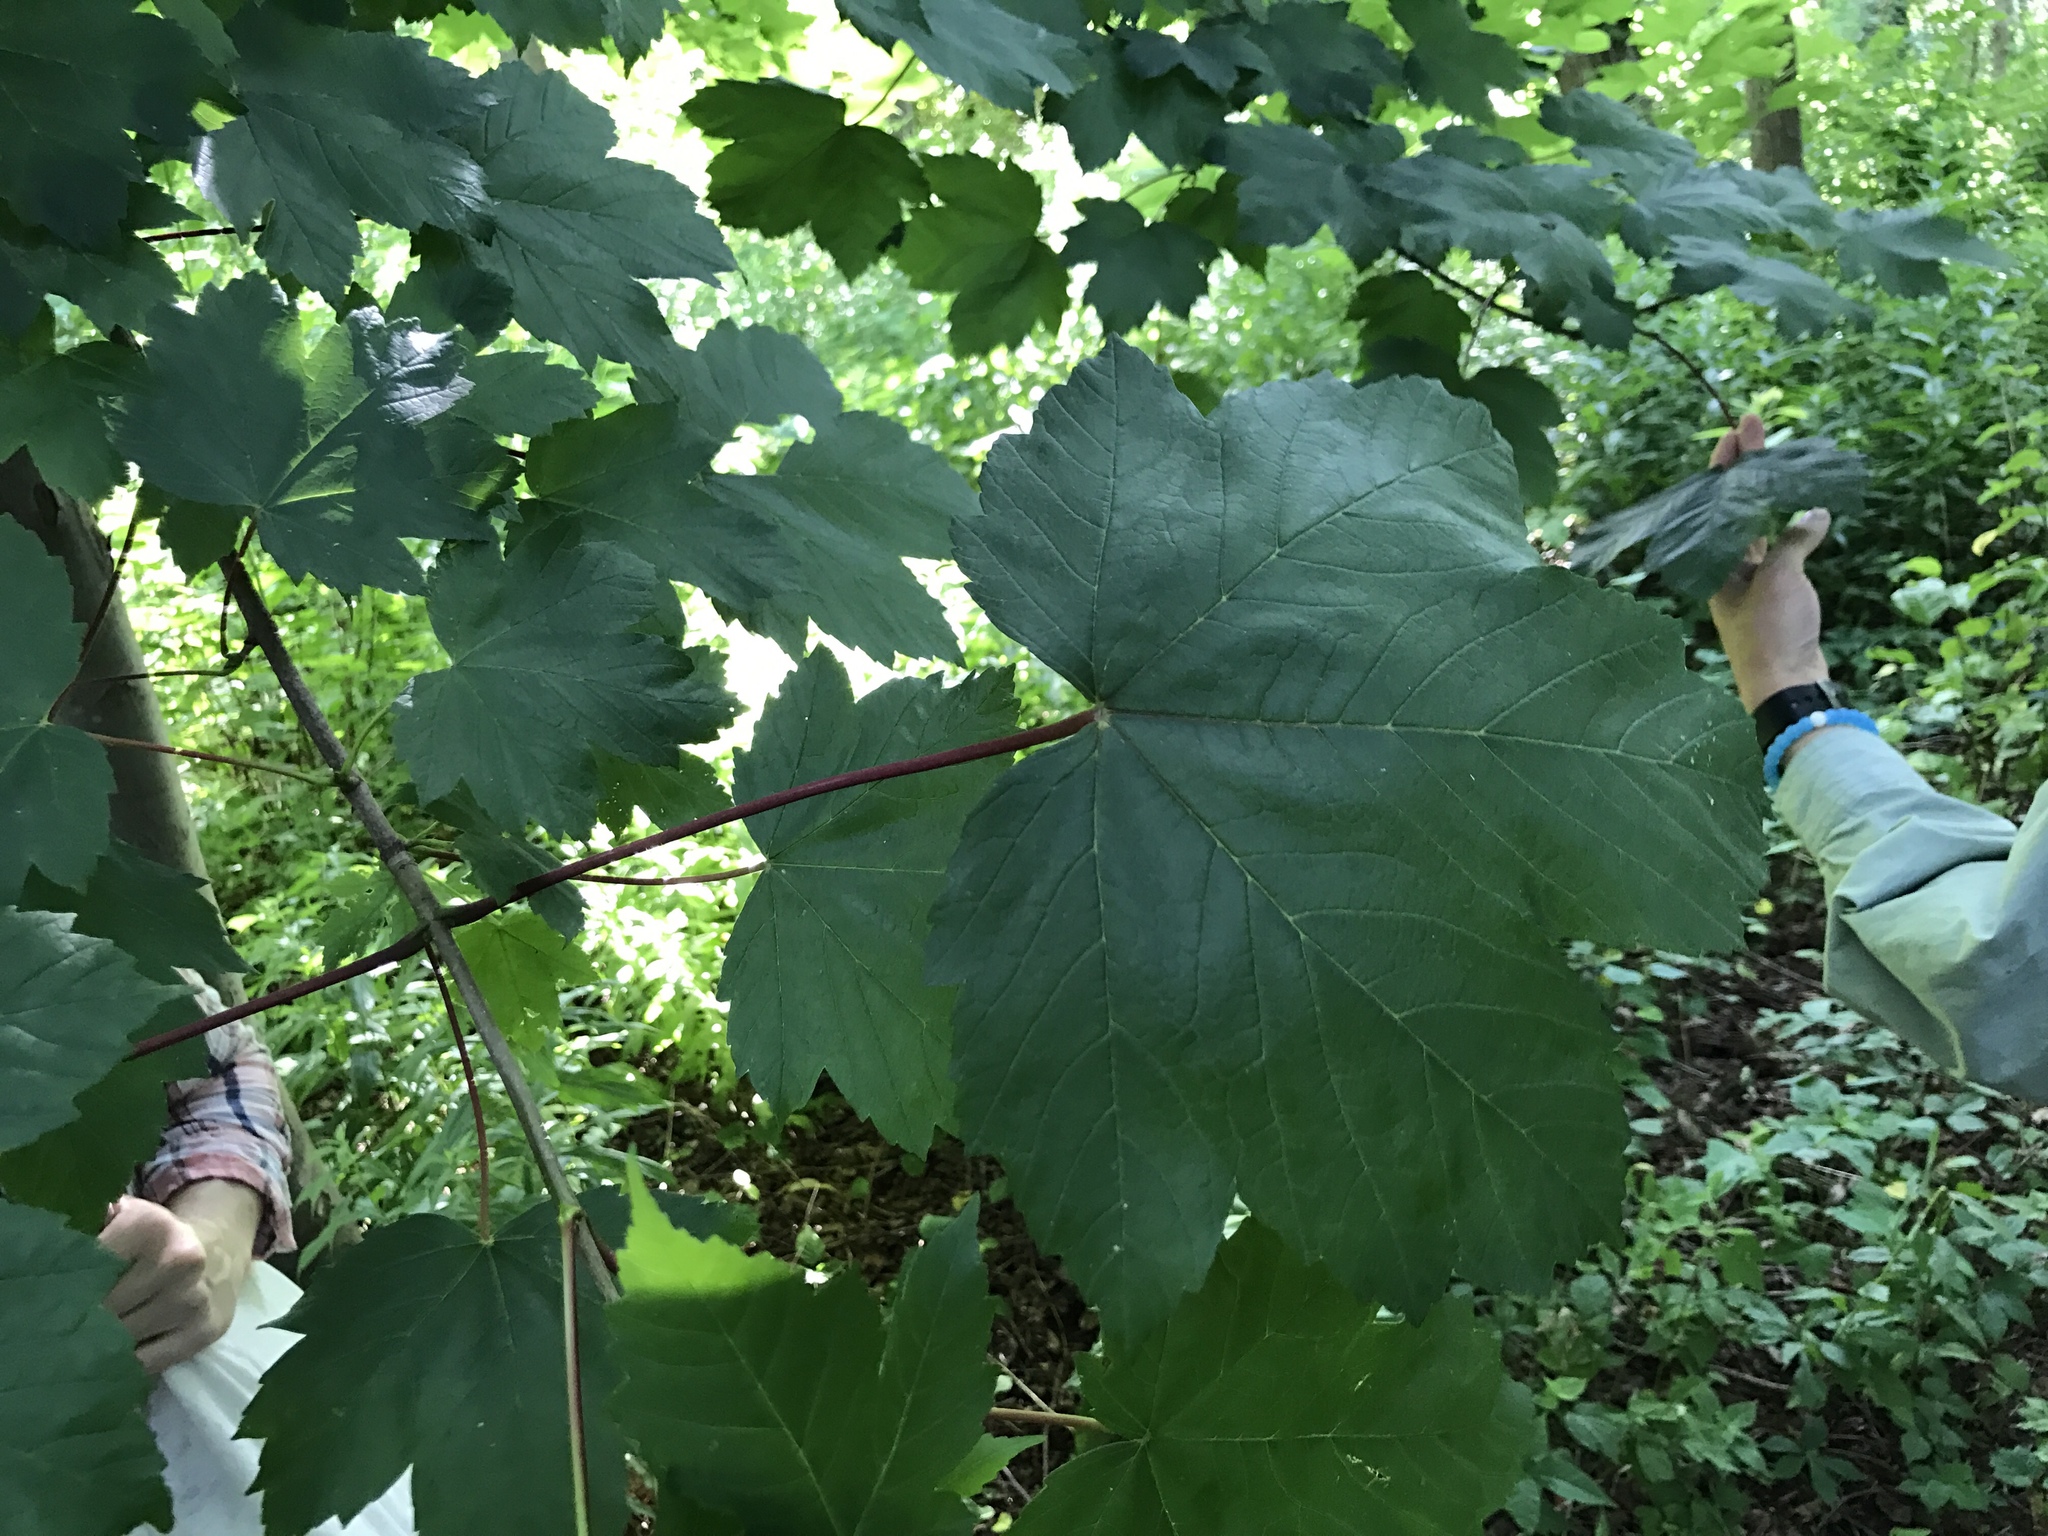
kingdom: Plantae
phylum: Tracheophyta
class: Magnoliopsida
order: Sapindales
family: Sapindaceae
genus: Acer
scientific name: Acer pseudoplatanus
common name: Sycamore
